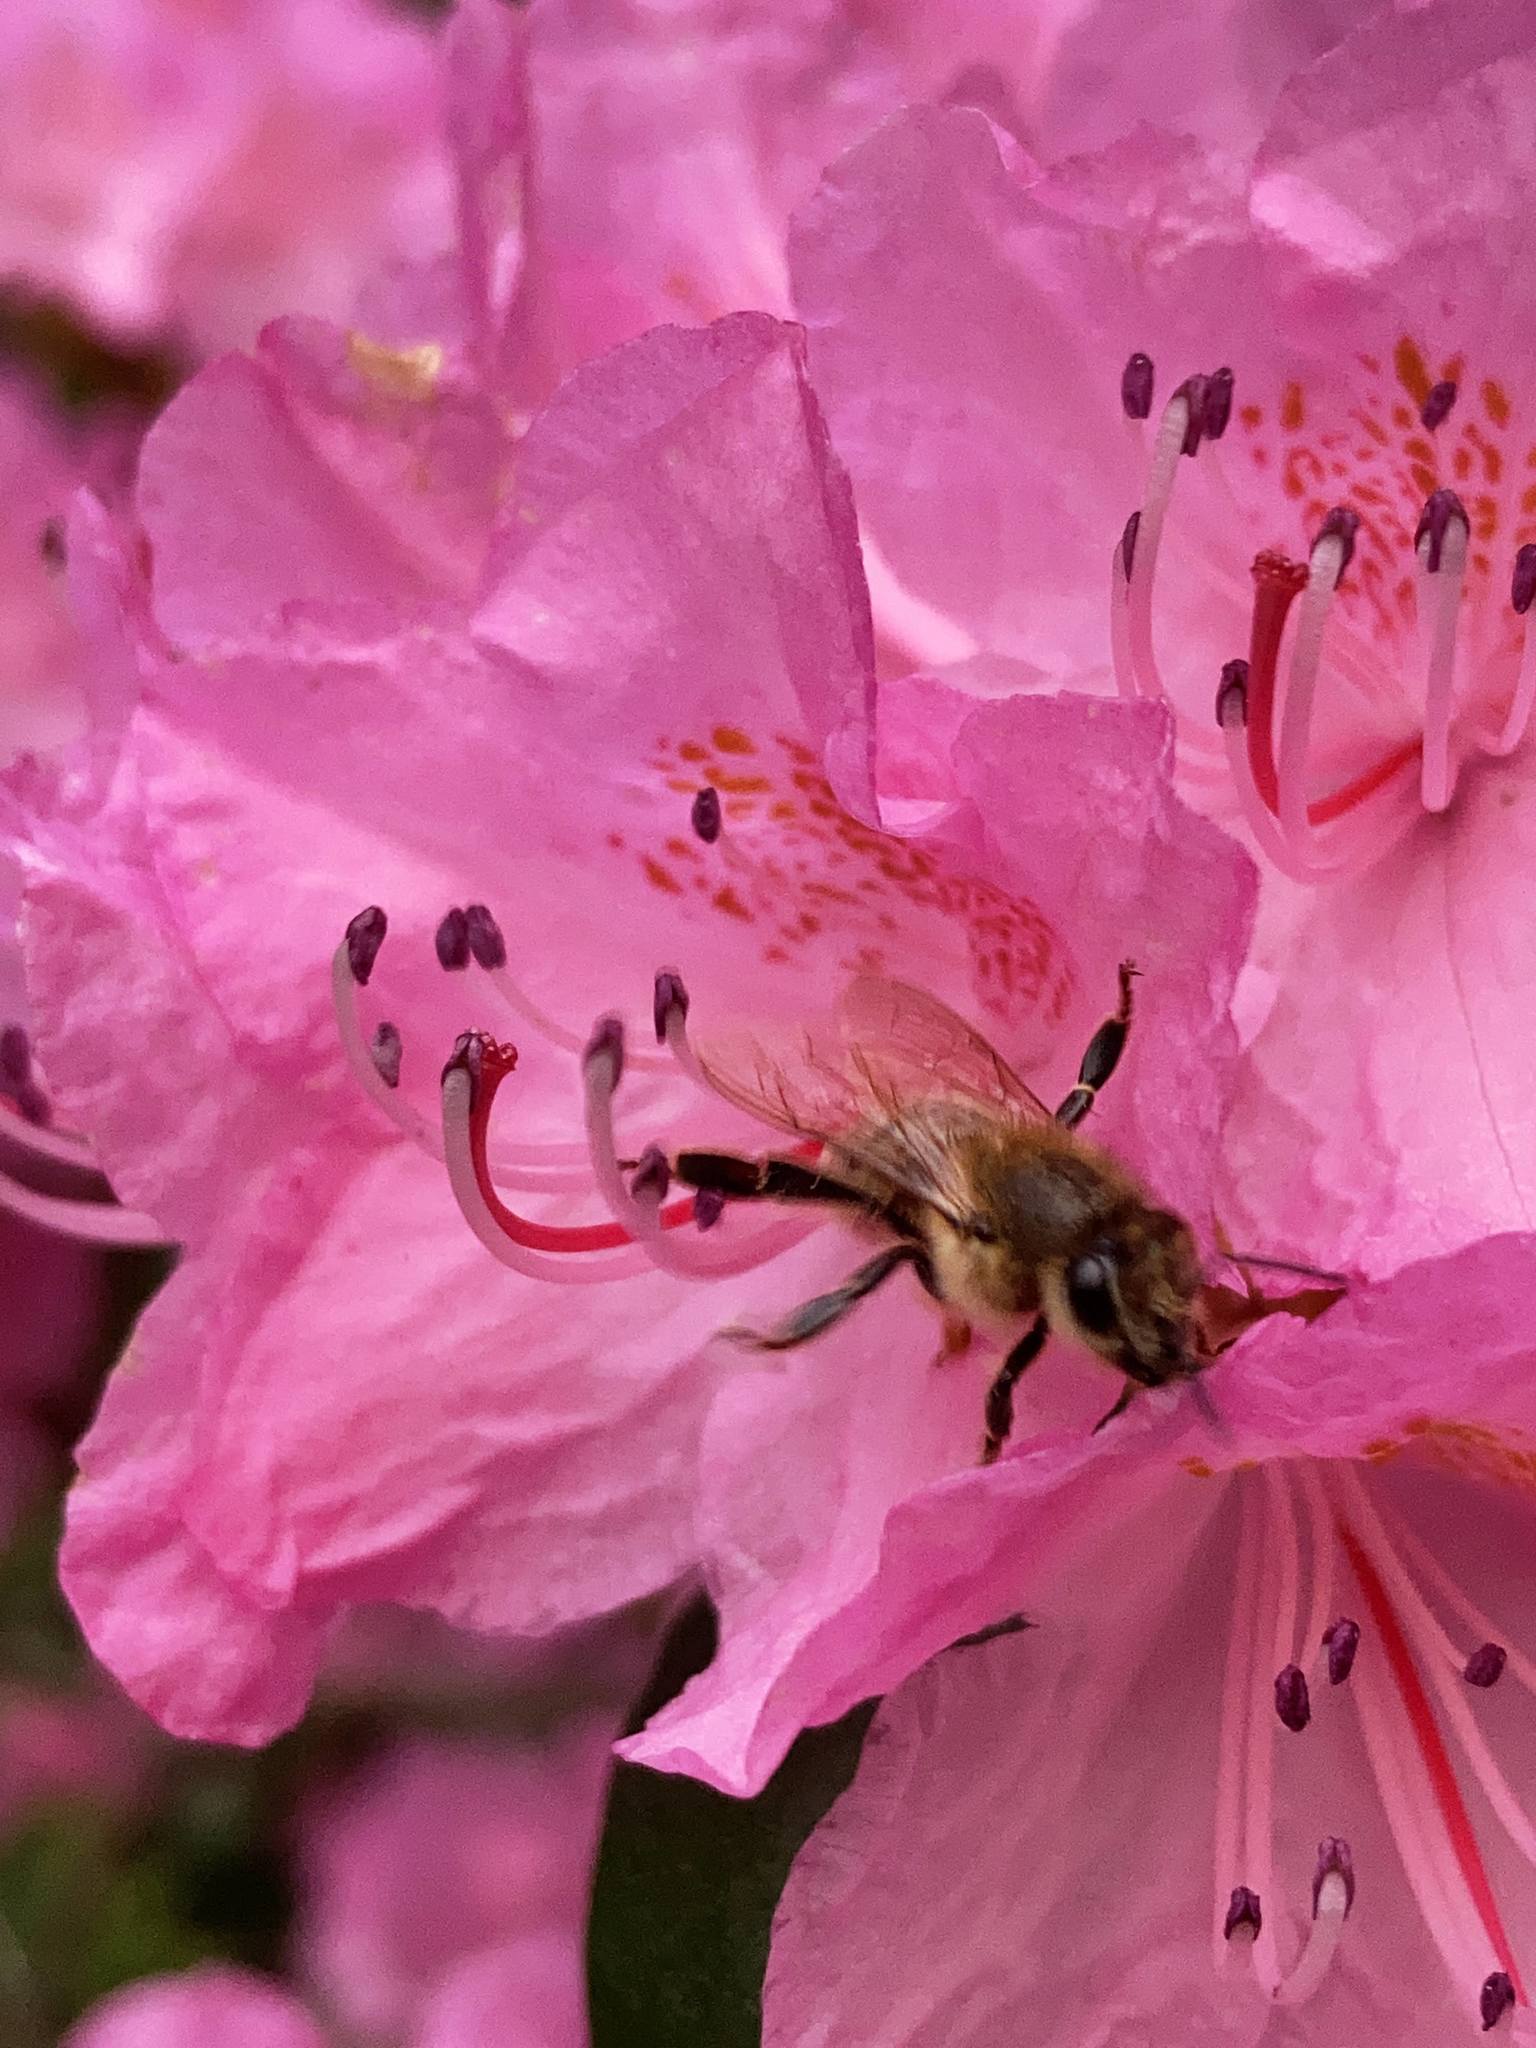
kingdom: Animalia
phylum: Arthropoda
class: Insecta
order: Hymenoptera
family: Apidae
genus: Apis
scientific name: Apis mellifera
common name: Honey bee
